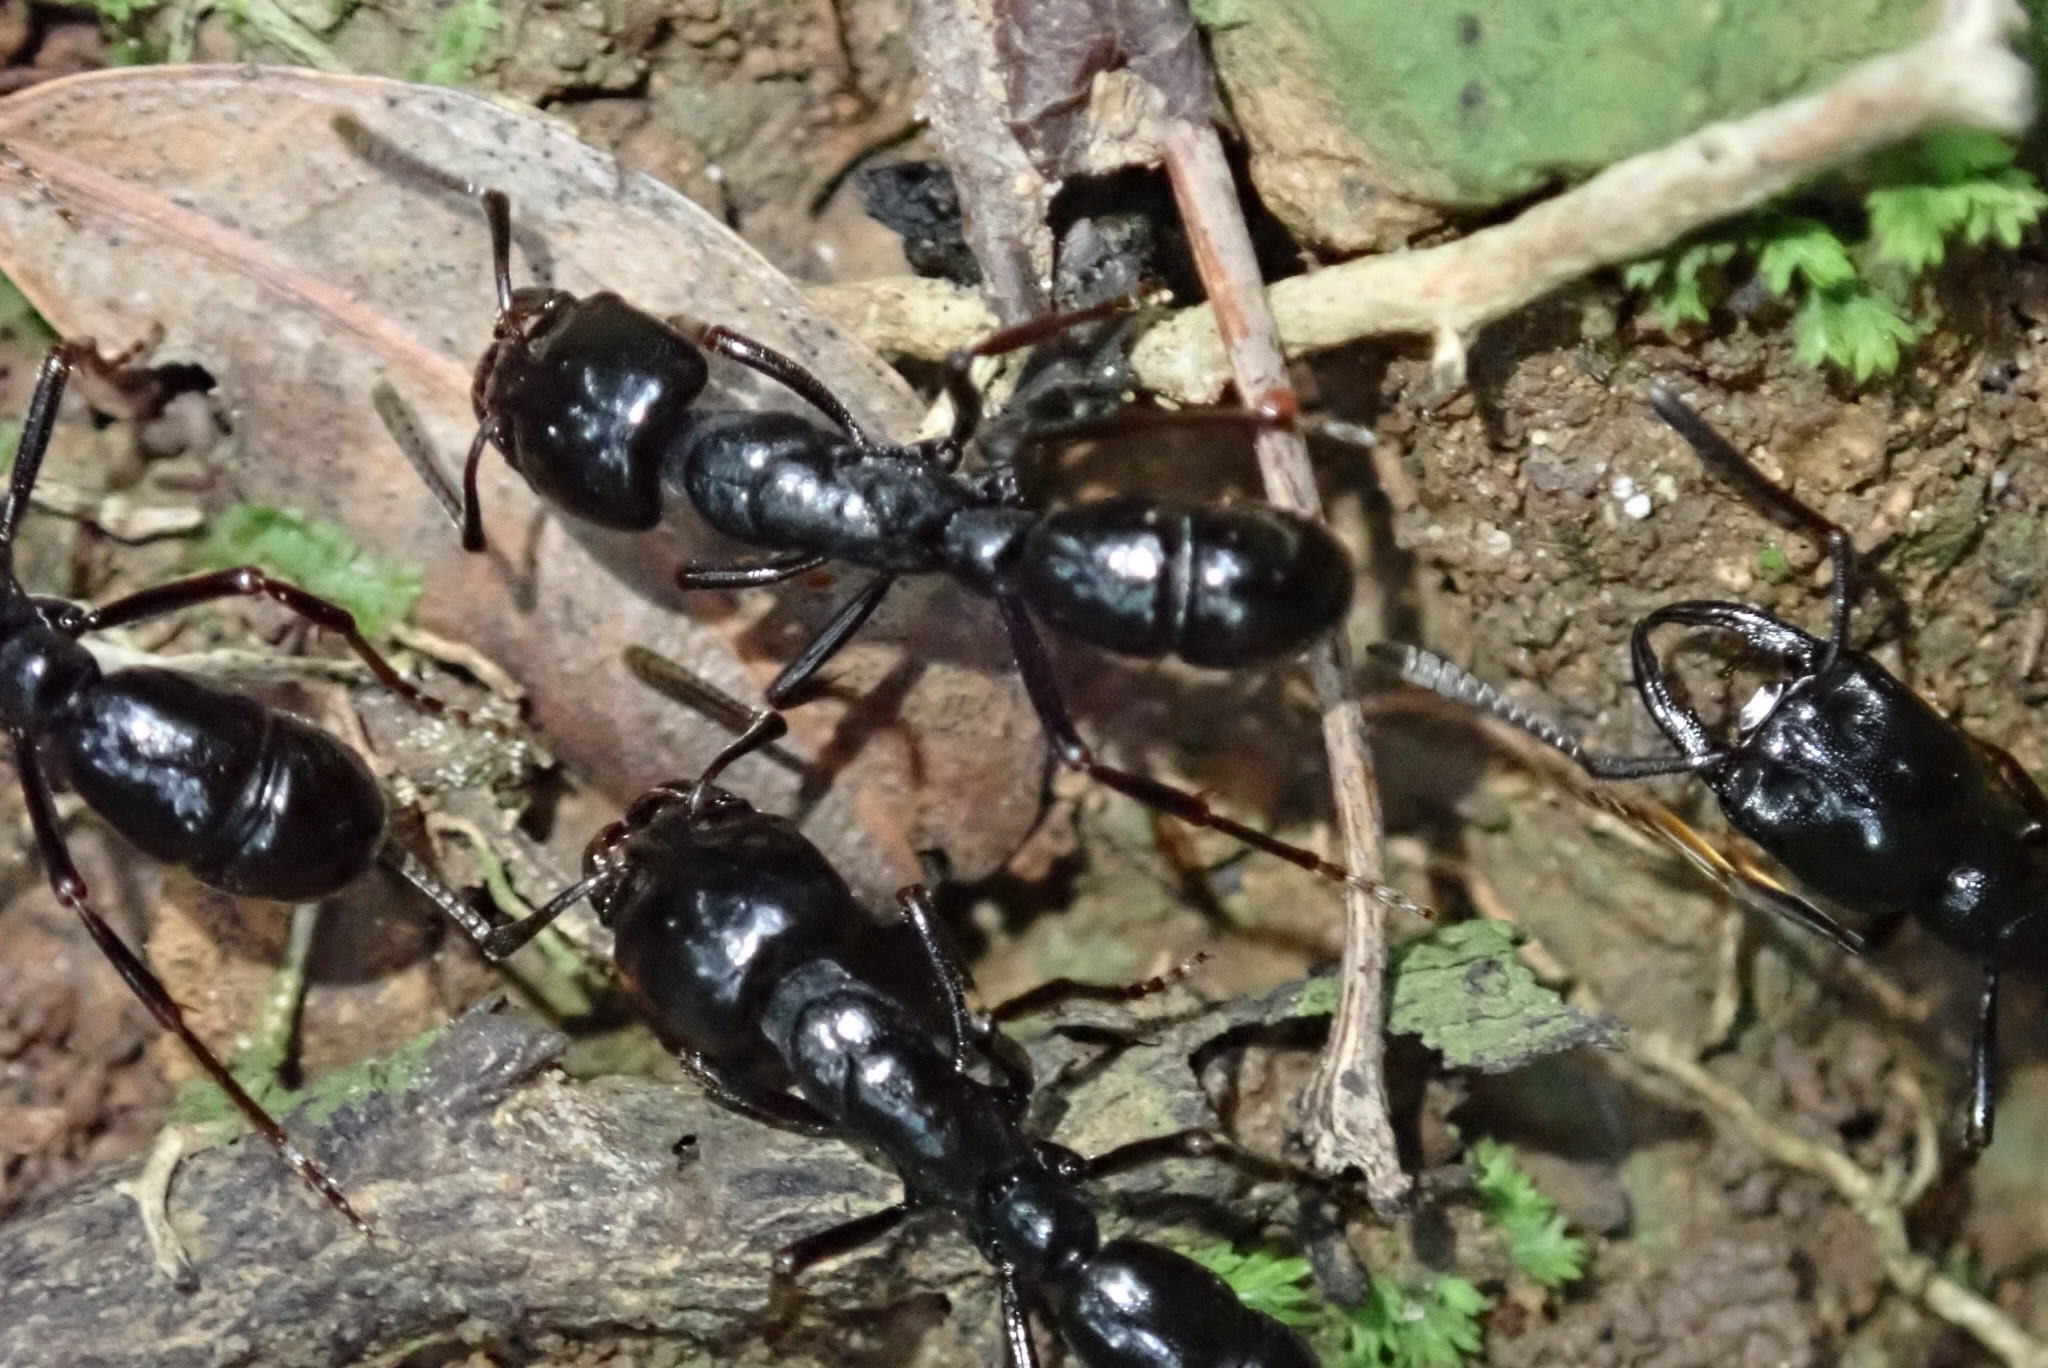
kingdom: Animalia
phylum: Arthropoda
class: Insecta
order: Hymenoptera
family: Formicidae
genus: Plectroctena
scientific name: Plectroctena mandibularis
